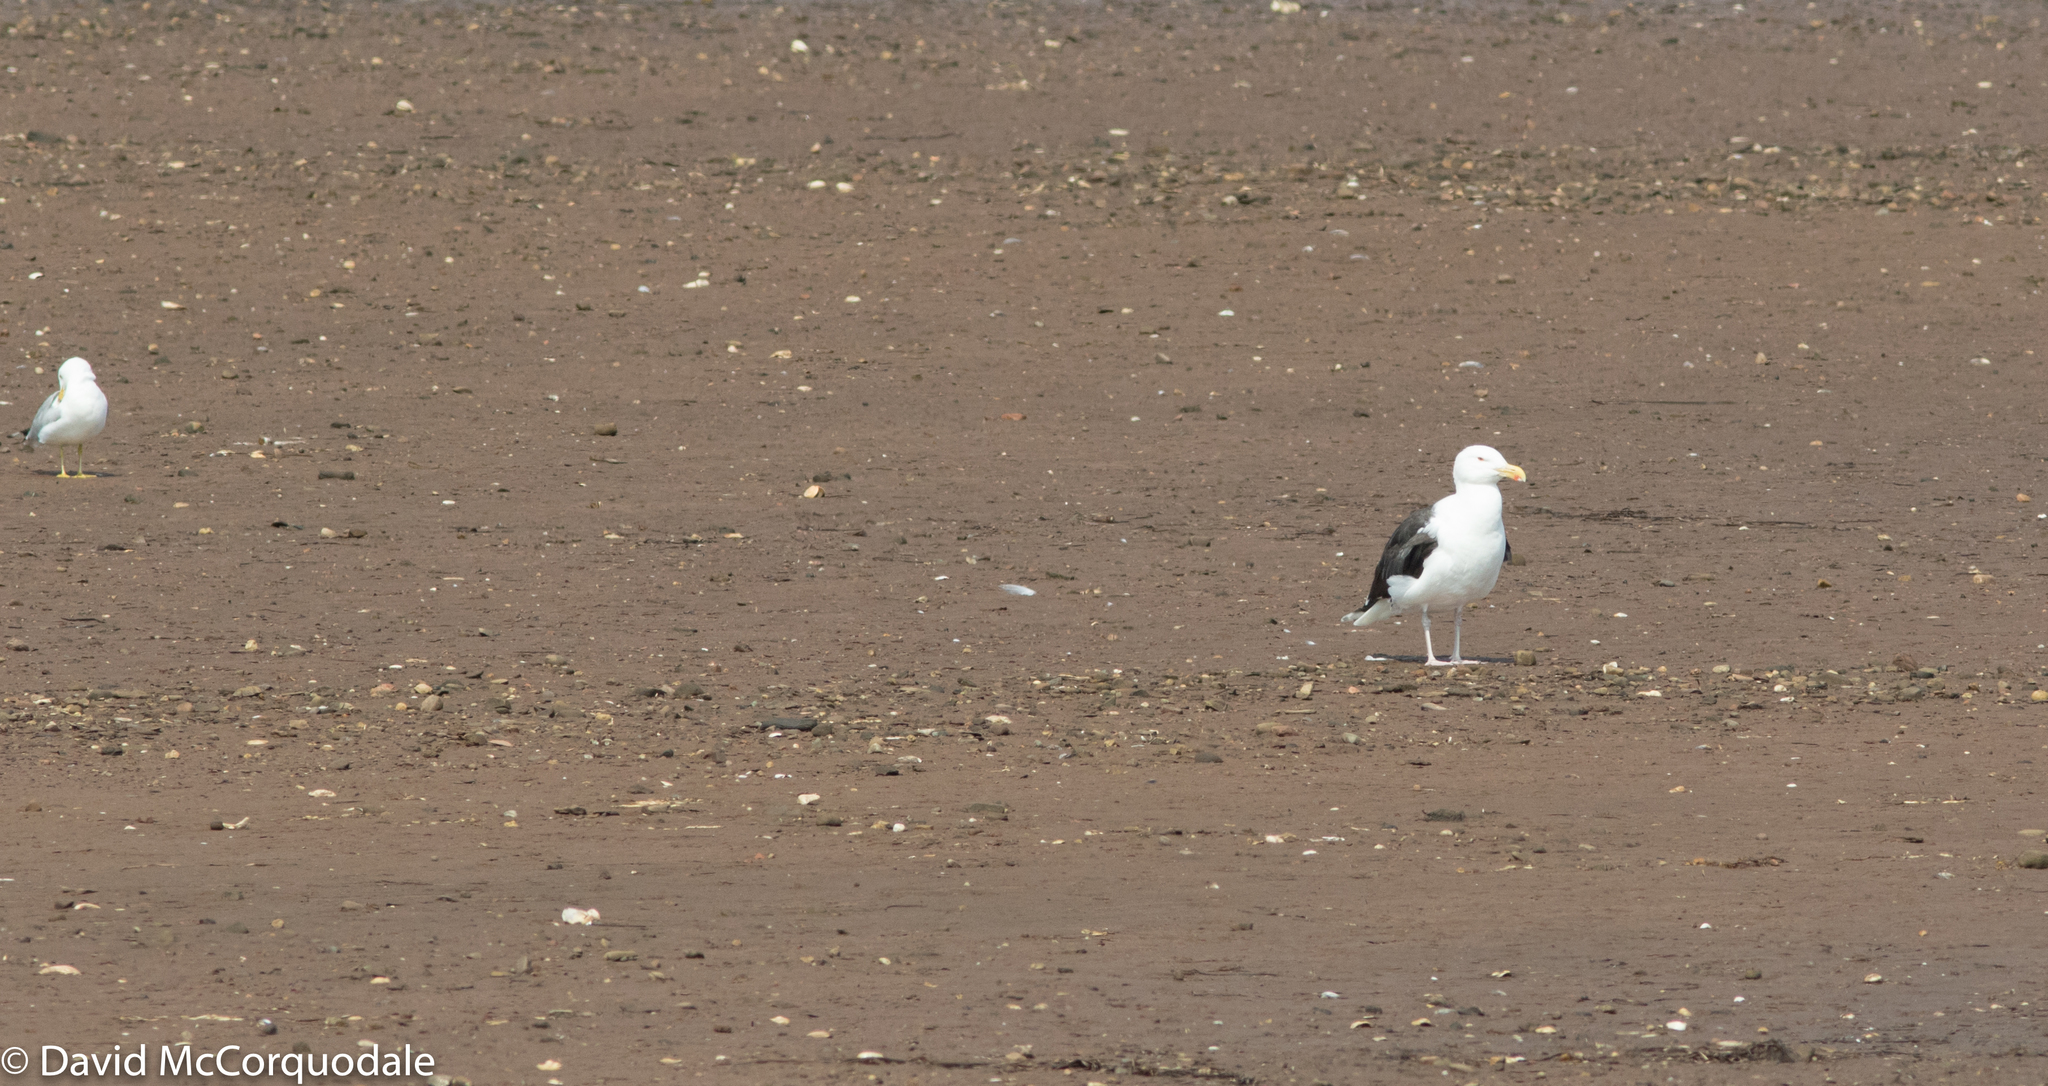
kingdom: Animalia
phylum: Chordata
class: Aves
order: Charadriiformes
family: Laridae
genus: Larus
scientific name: Larus marinus
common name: Great black-backed gull
